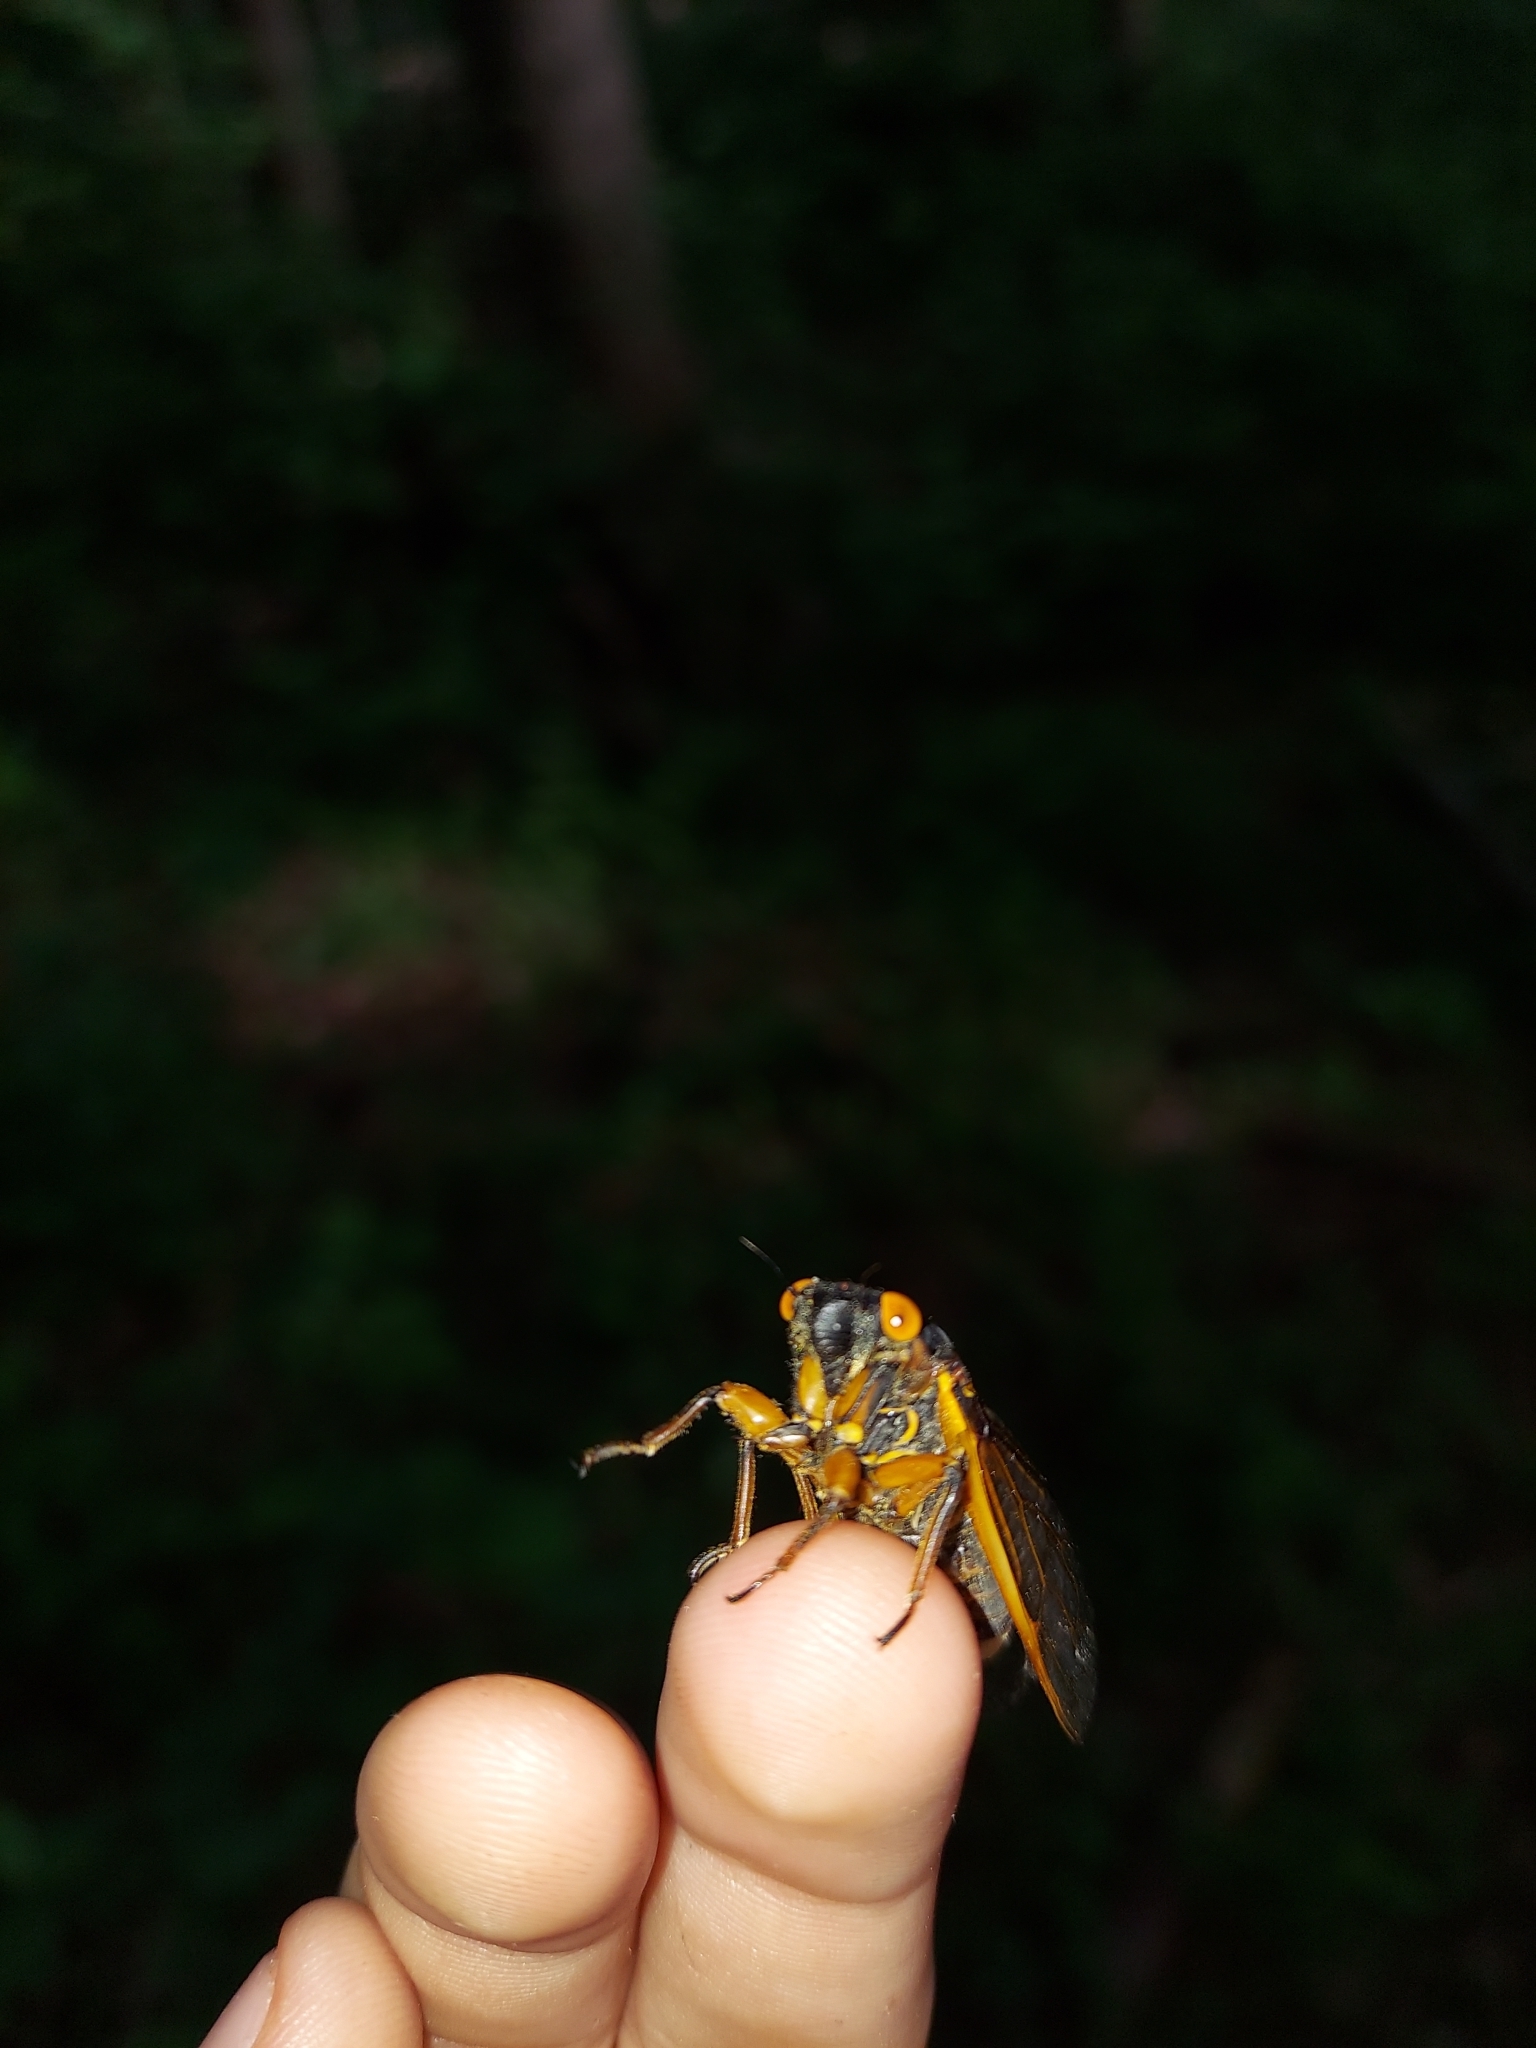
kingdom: Fungi
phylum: Entomophthoromycota
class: Entomophthoromycetes
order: Entomophthorales
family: Entomophthoraceae
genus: Massospora
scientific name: Massospora cicadina
